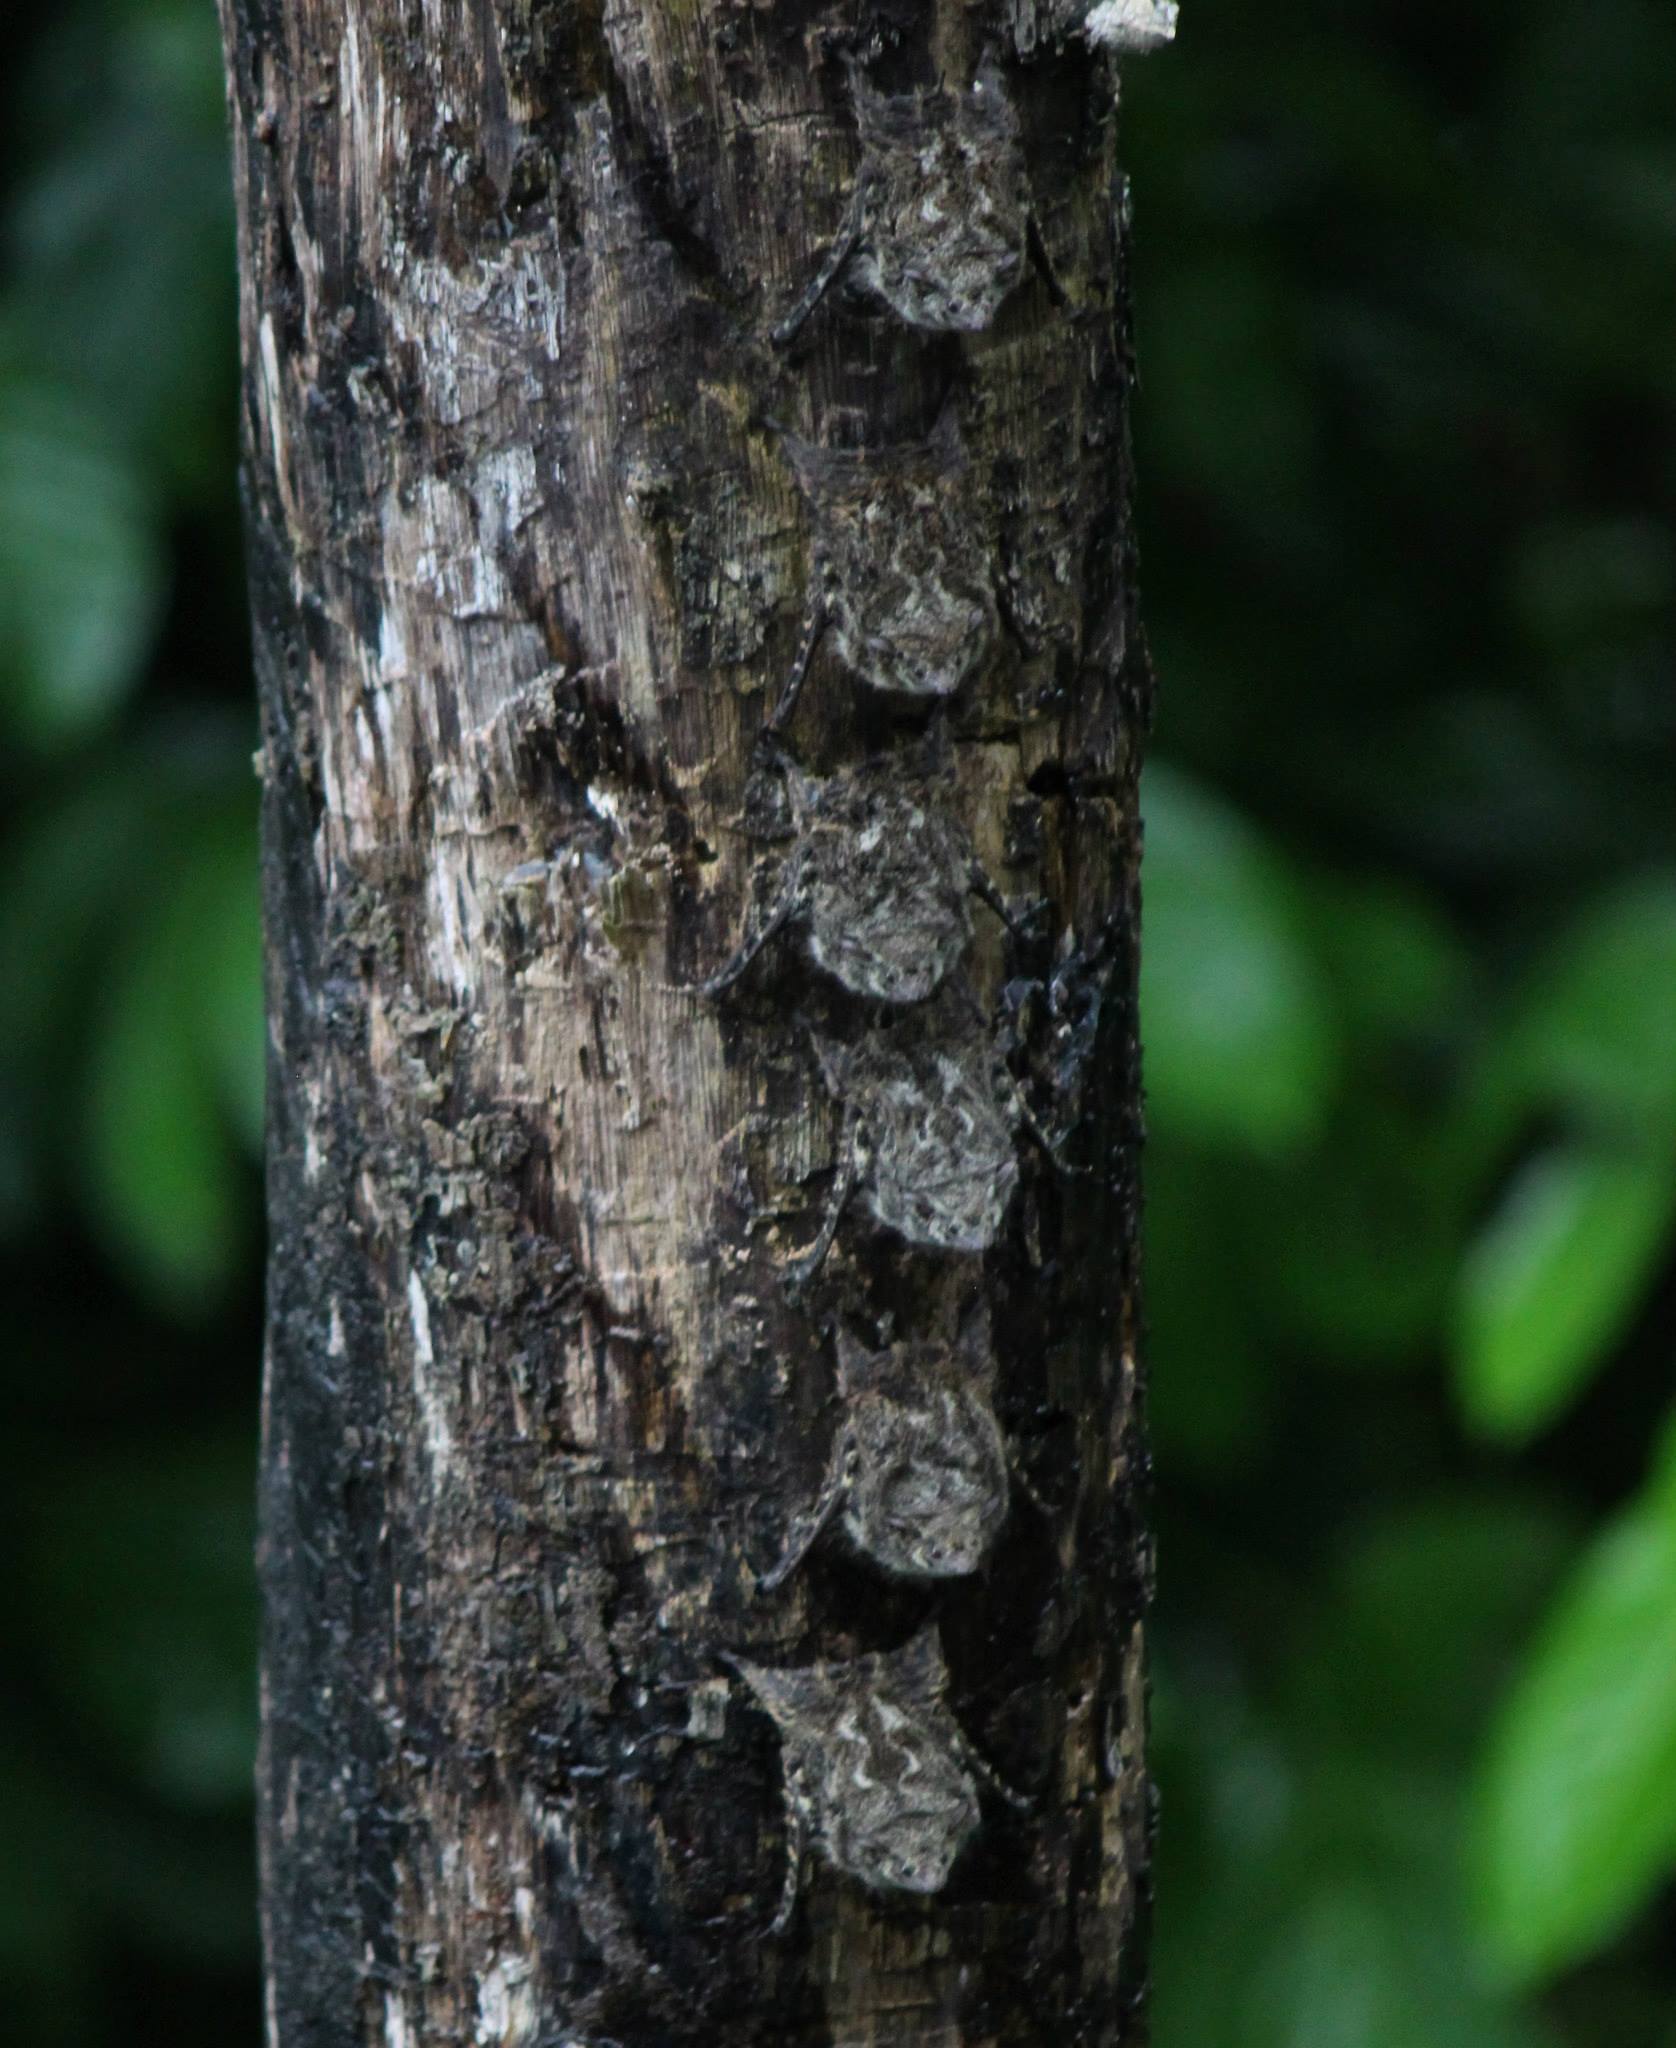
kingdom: Animalia
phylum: Chordata
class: Mammalia
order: Chiroptera
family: Emballonuridae
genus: Rhynchonycteris
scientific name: Rhynchonycteris naso
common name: Proboscis bat
